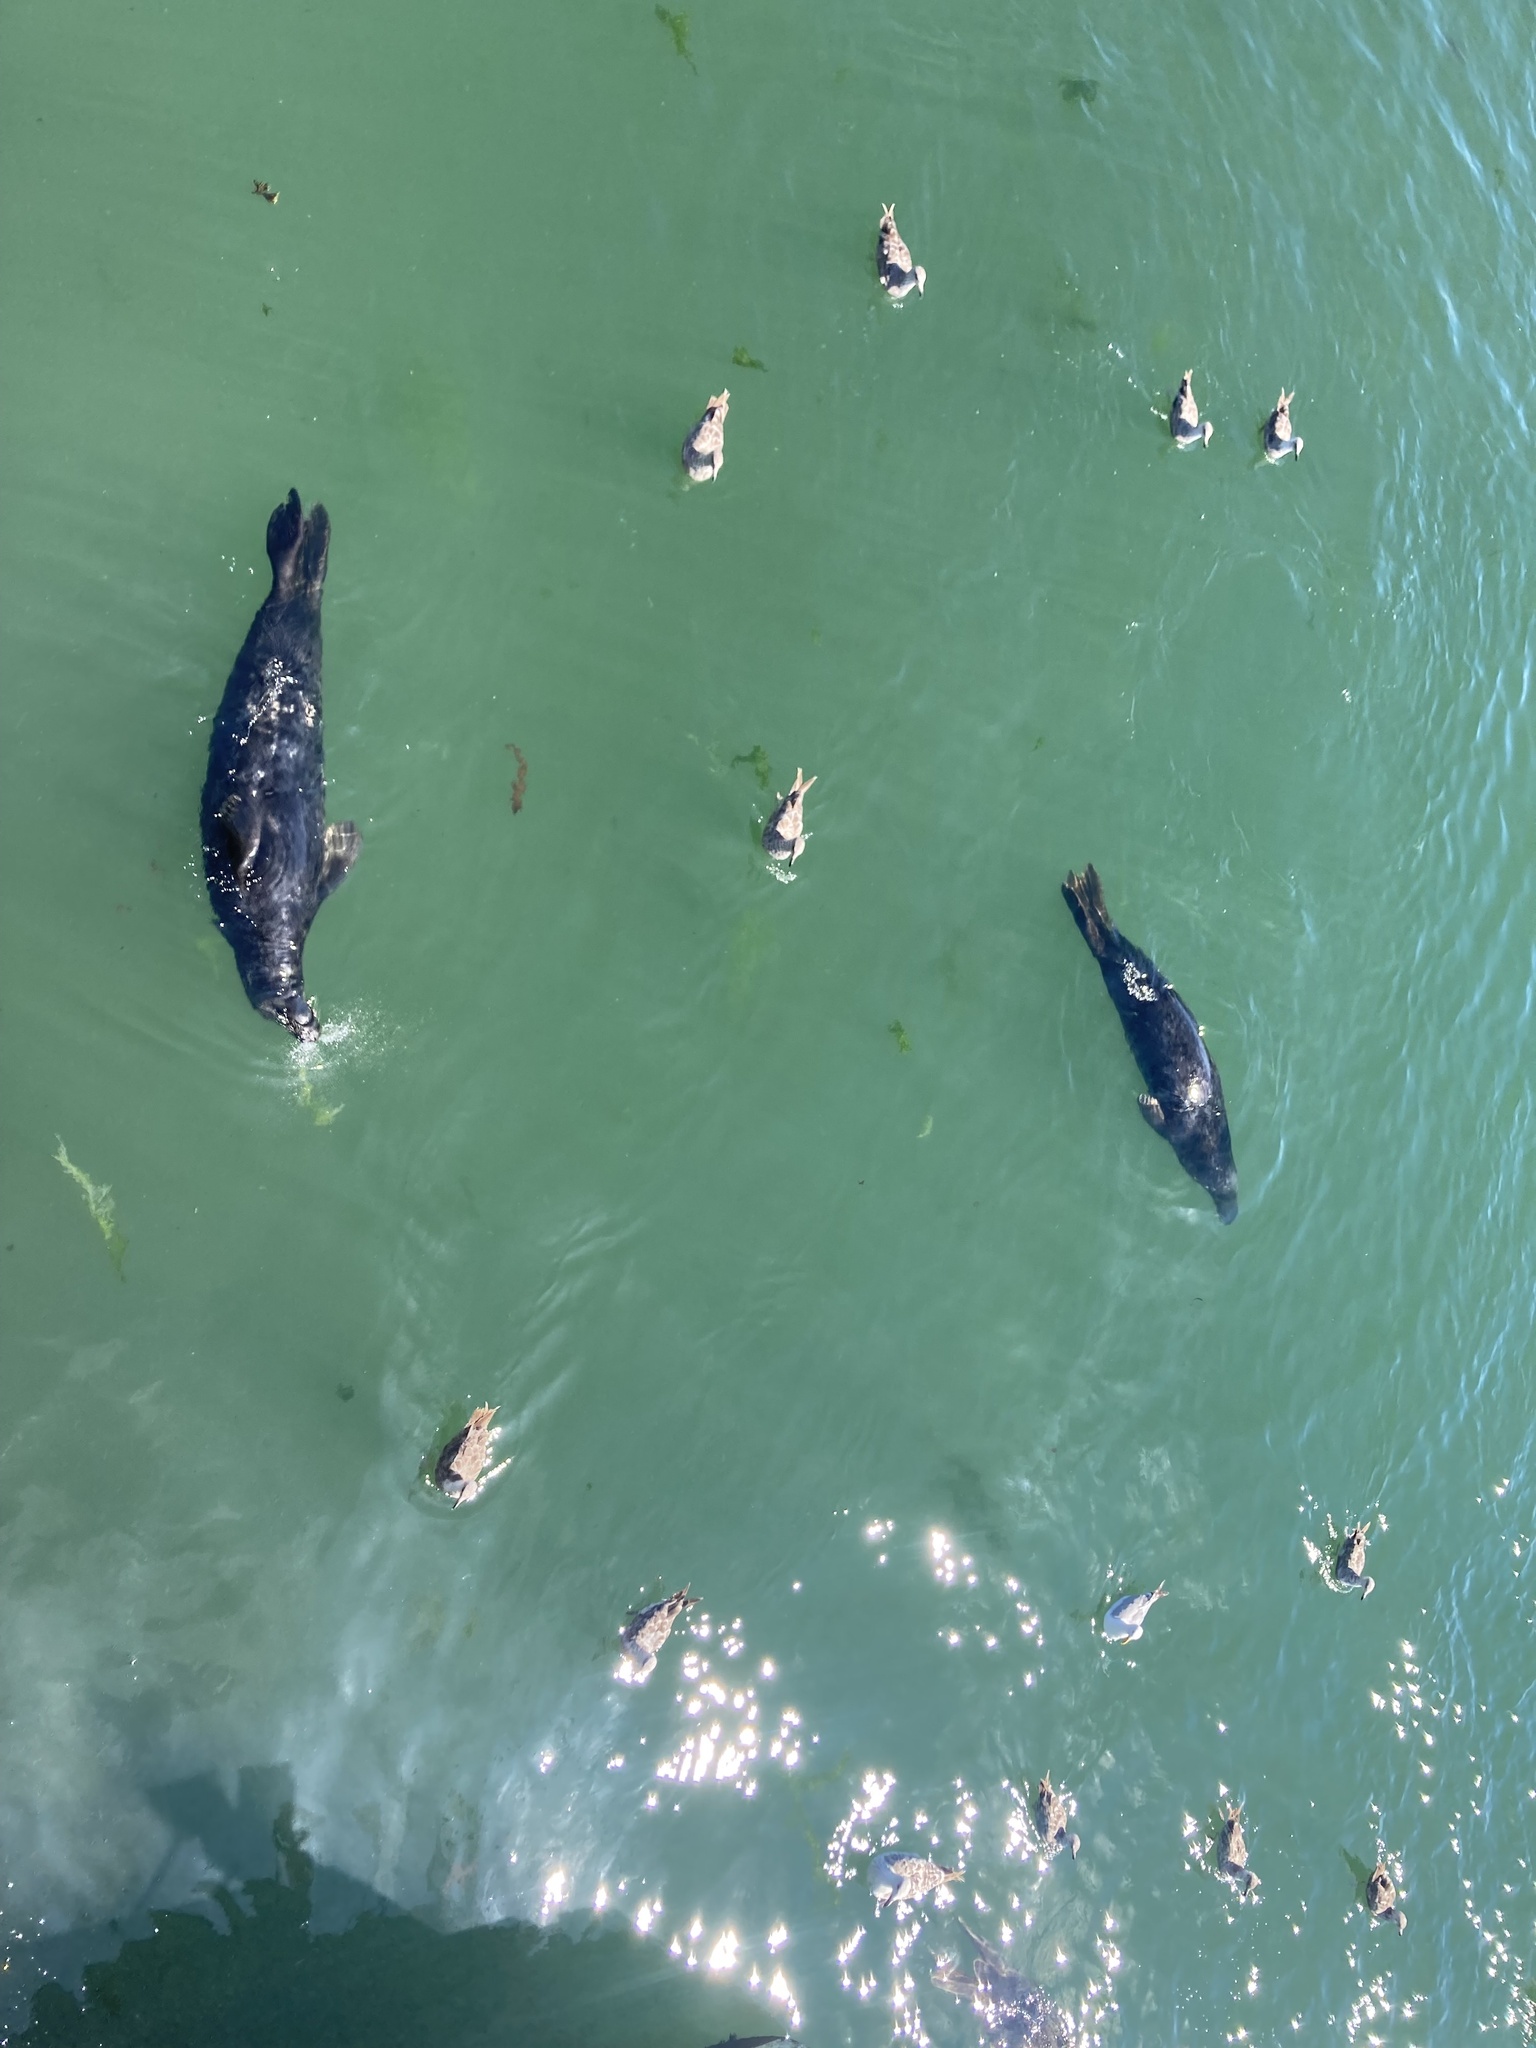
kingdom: Animalia
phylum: Chordata
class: Mammalia
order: Carnivora
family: Phocidae
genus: Halichoerus
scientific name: Halichoerus grypus
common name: Grey seal
